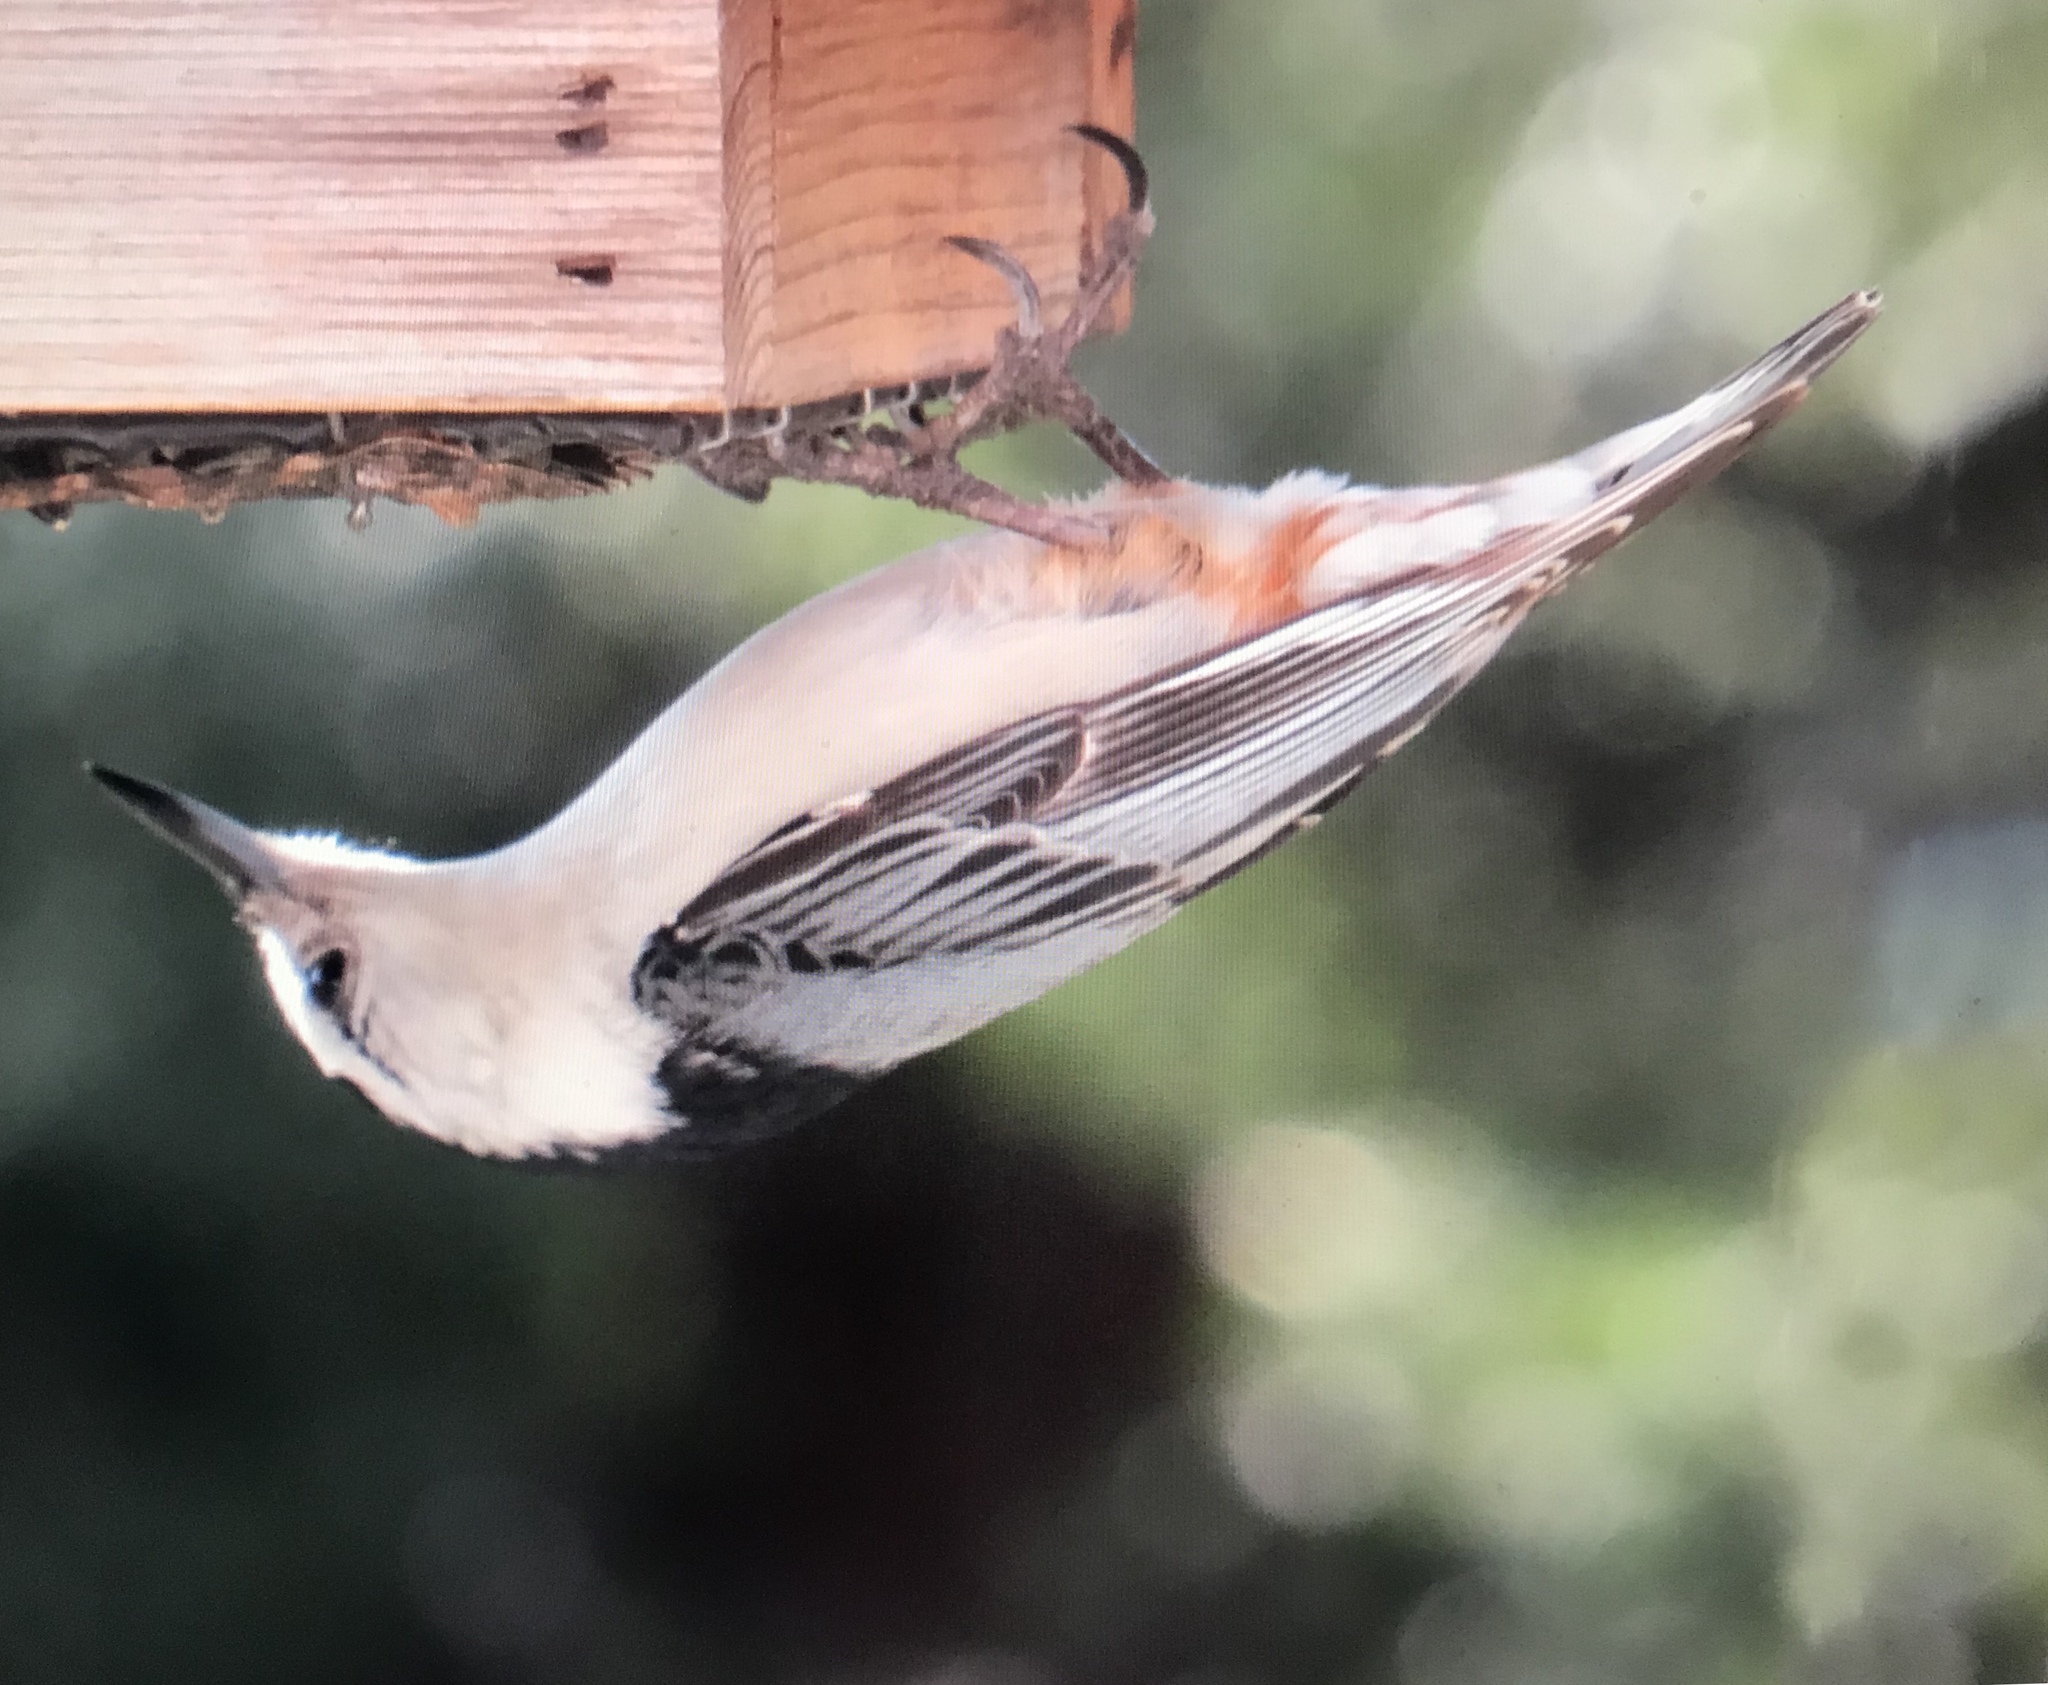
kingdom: Animalia
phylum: Chordata
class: Aves
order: Passeriformes
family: Sittidae
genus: Sitta
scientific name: Sitta carolinensis
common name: White-breasted nuthatch
